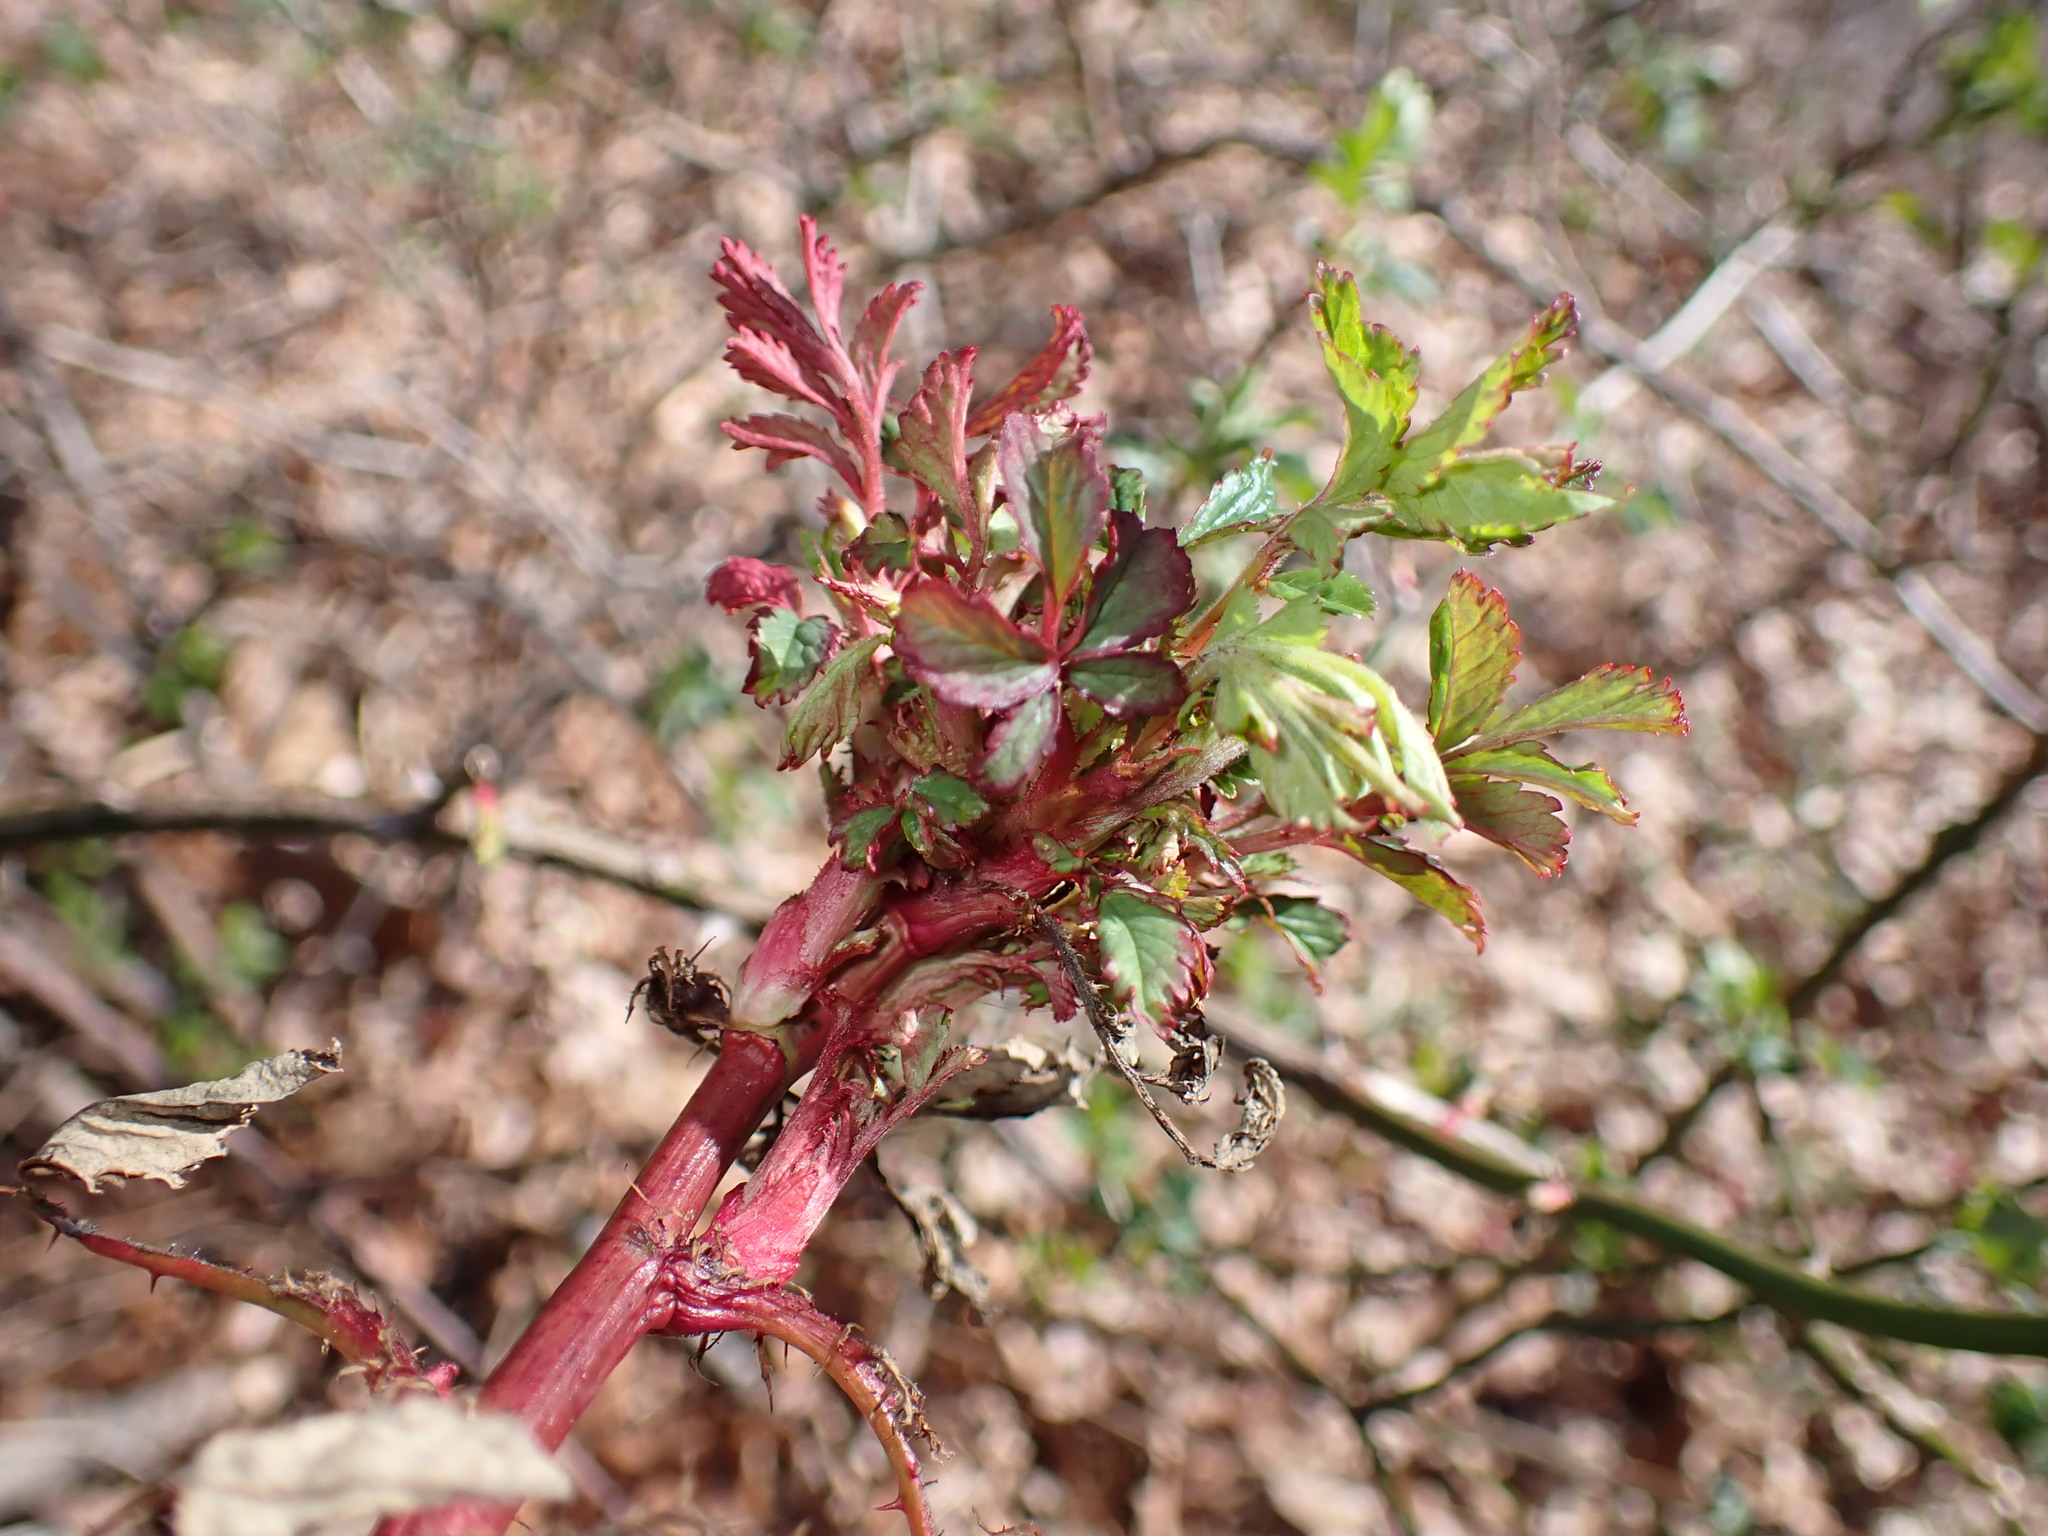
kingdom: Viruses
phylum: Negarnaviricota
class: Ellioviricetes
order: Bunyavirales
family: Fimoviridae
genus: Emaravirus
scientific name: Emaravirus rosae
